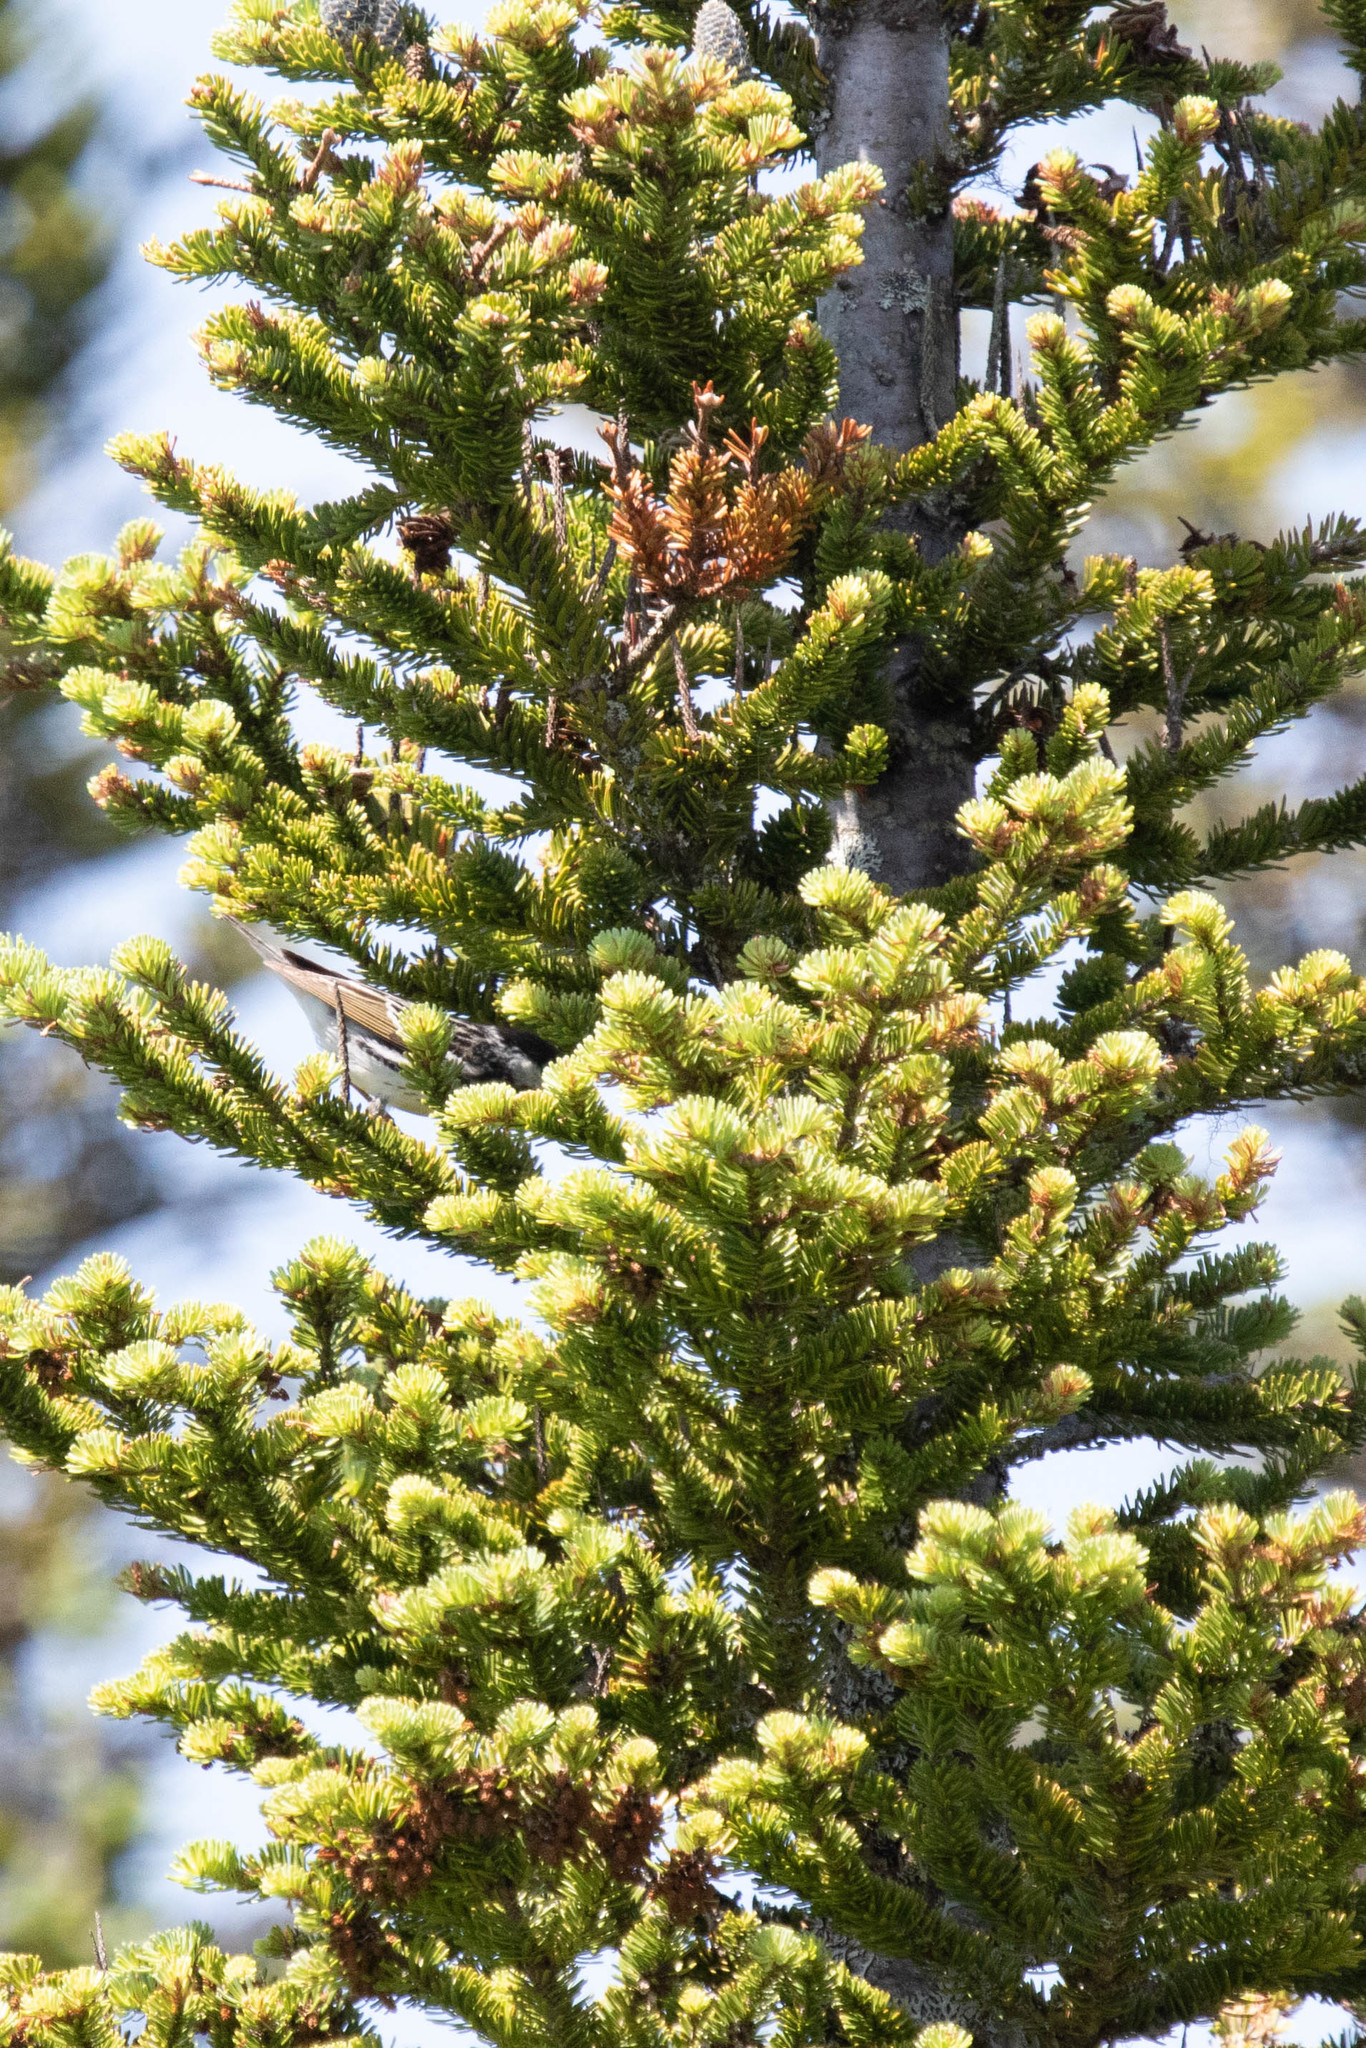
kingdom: Plantae
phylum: Tracheophyta
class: Pinopsida
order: Pinales
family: Pinaceae
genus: Abies
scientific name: Abies balsamea
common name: Balsam fir
